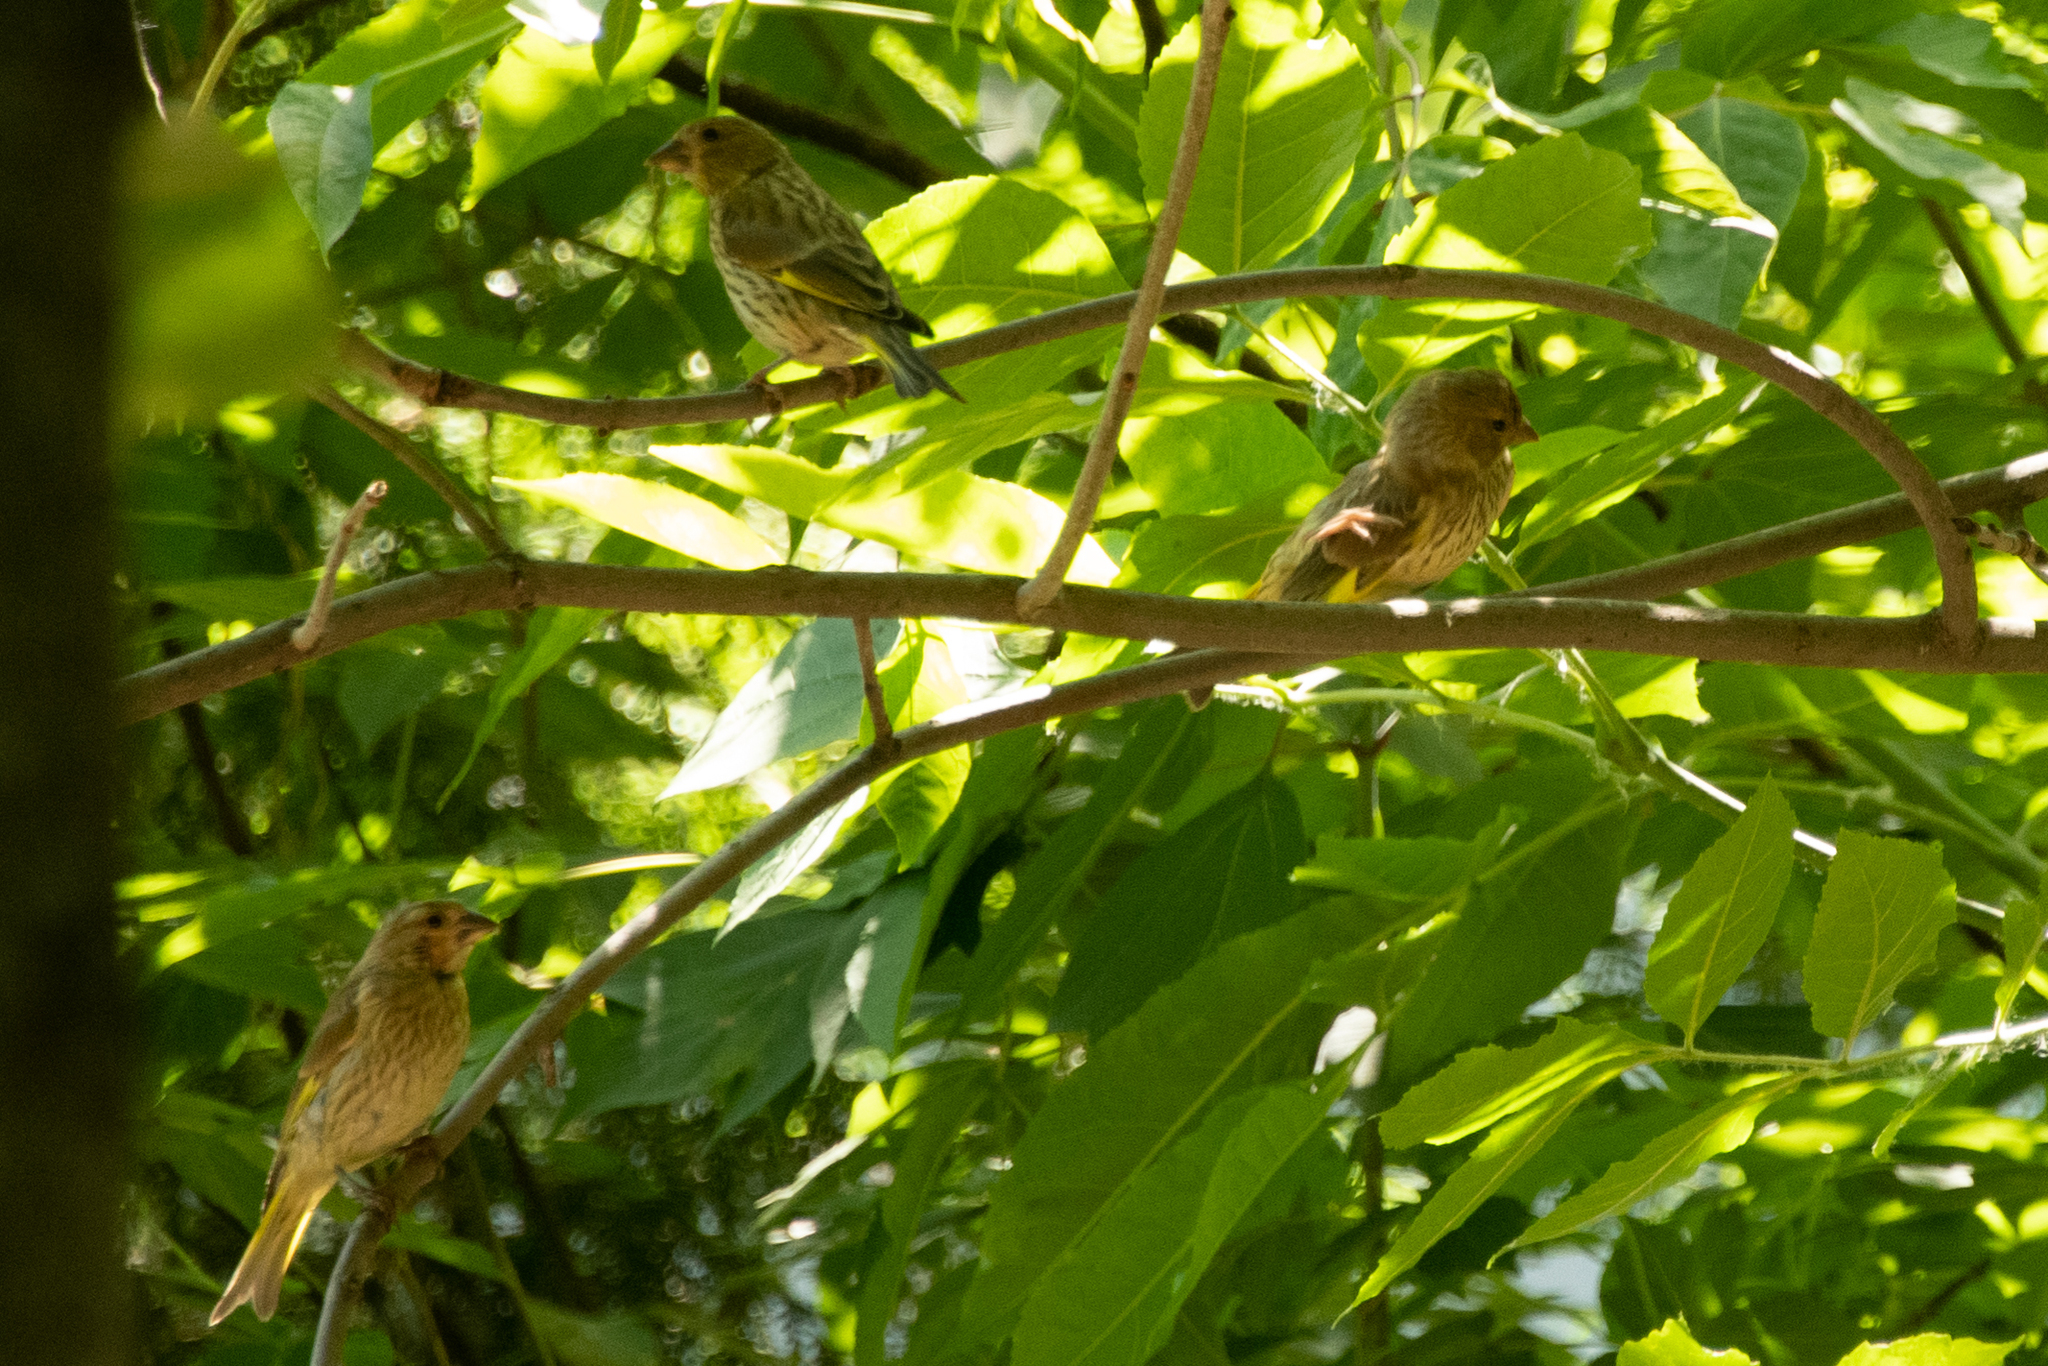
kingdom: Plantae
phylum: Tracheophyta
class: Liliopsida
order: Poales
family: Poaceae
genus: Chloris
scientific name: Chloris chloris
